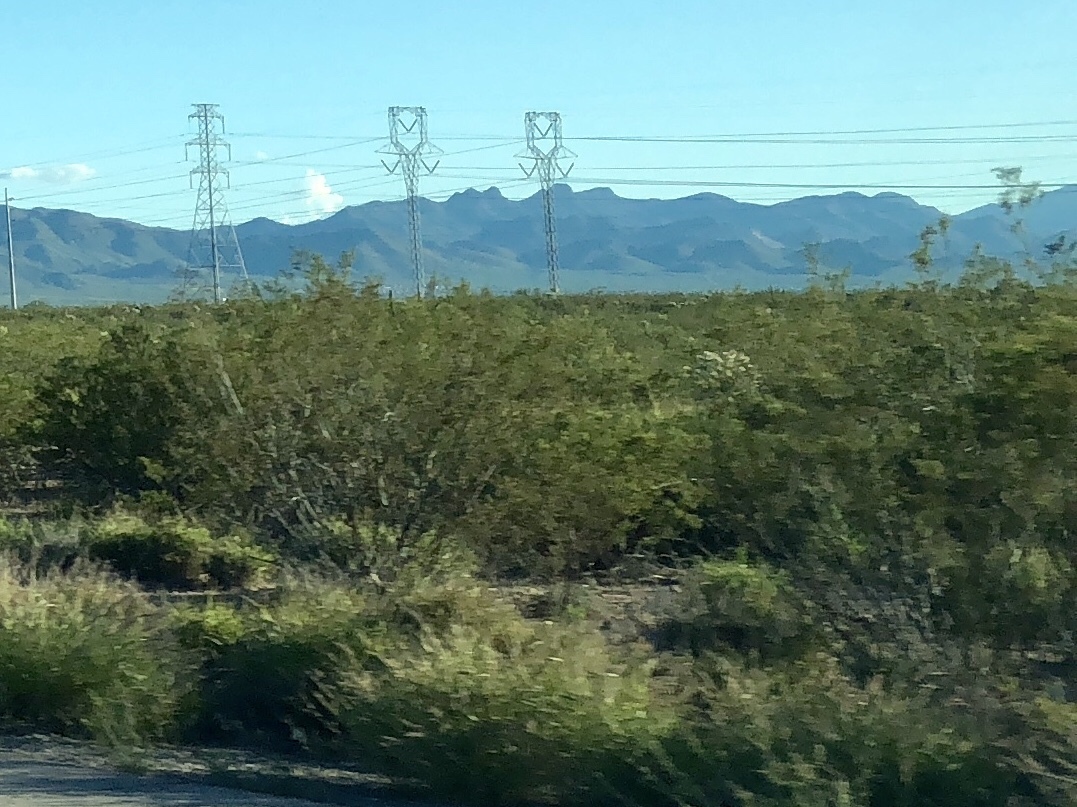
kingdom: Plantae
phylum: Tracheophyta
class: Magnoliopsida
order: Zygophyllales
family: Zygophyllaceae
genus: Larrea
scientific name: Larrea tridentata
